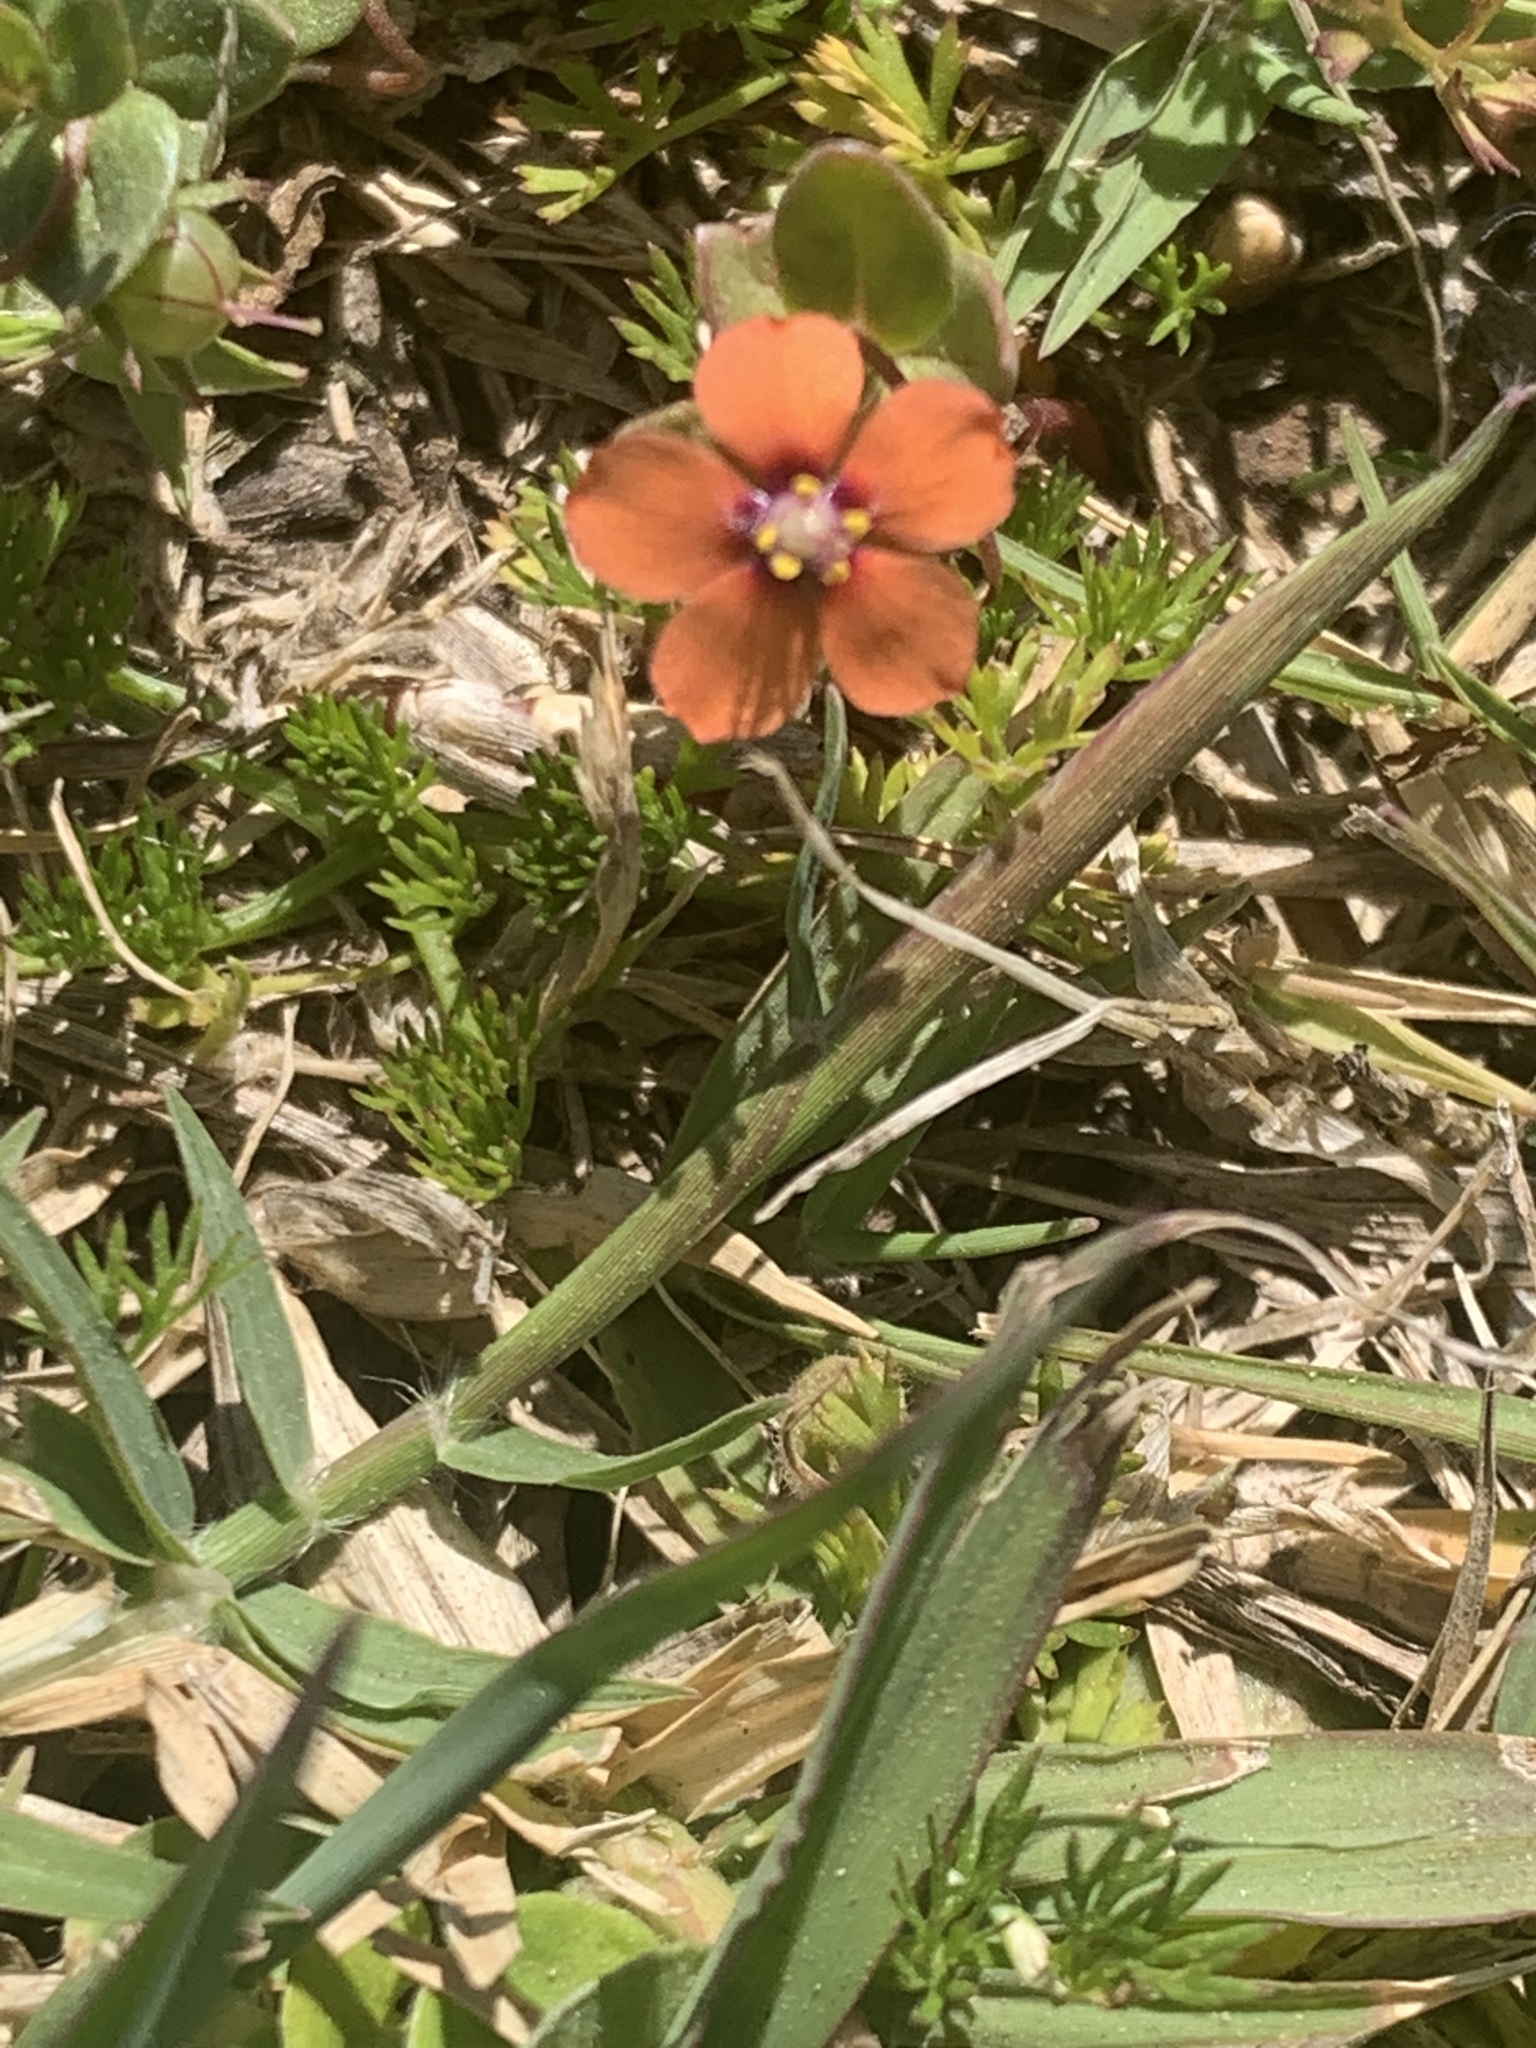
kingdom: Plantae
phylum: Tracheophyta
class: Magnoliopsida
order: Ericales
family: Primulaceae
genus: Lysimachia
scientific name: Lysimachia arvensis
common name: Scarlet pimpernel
